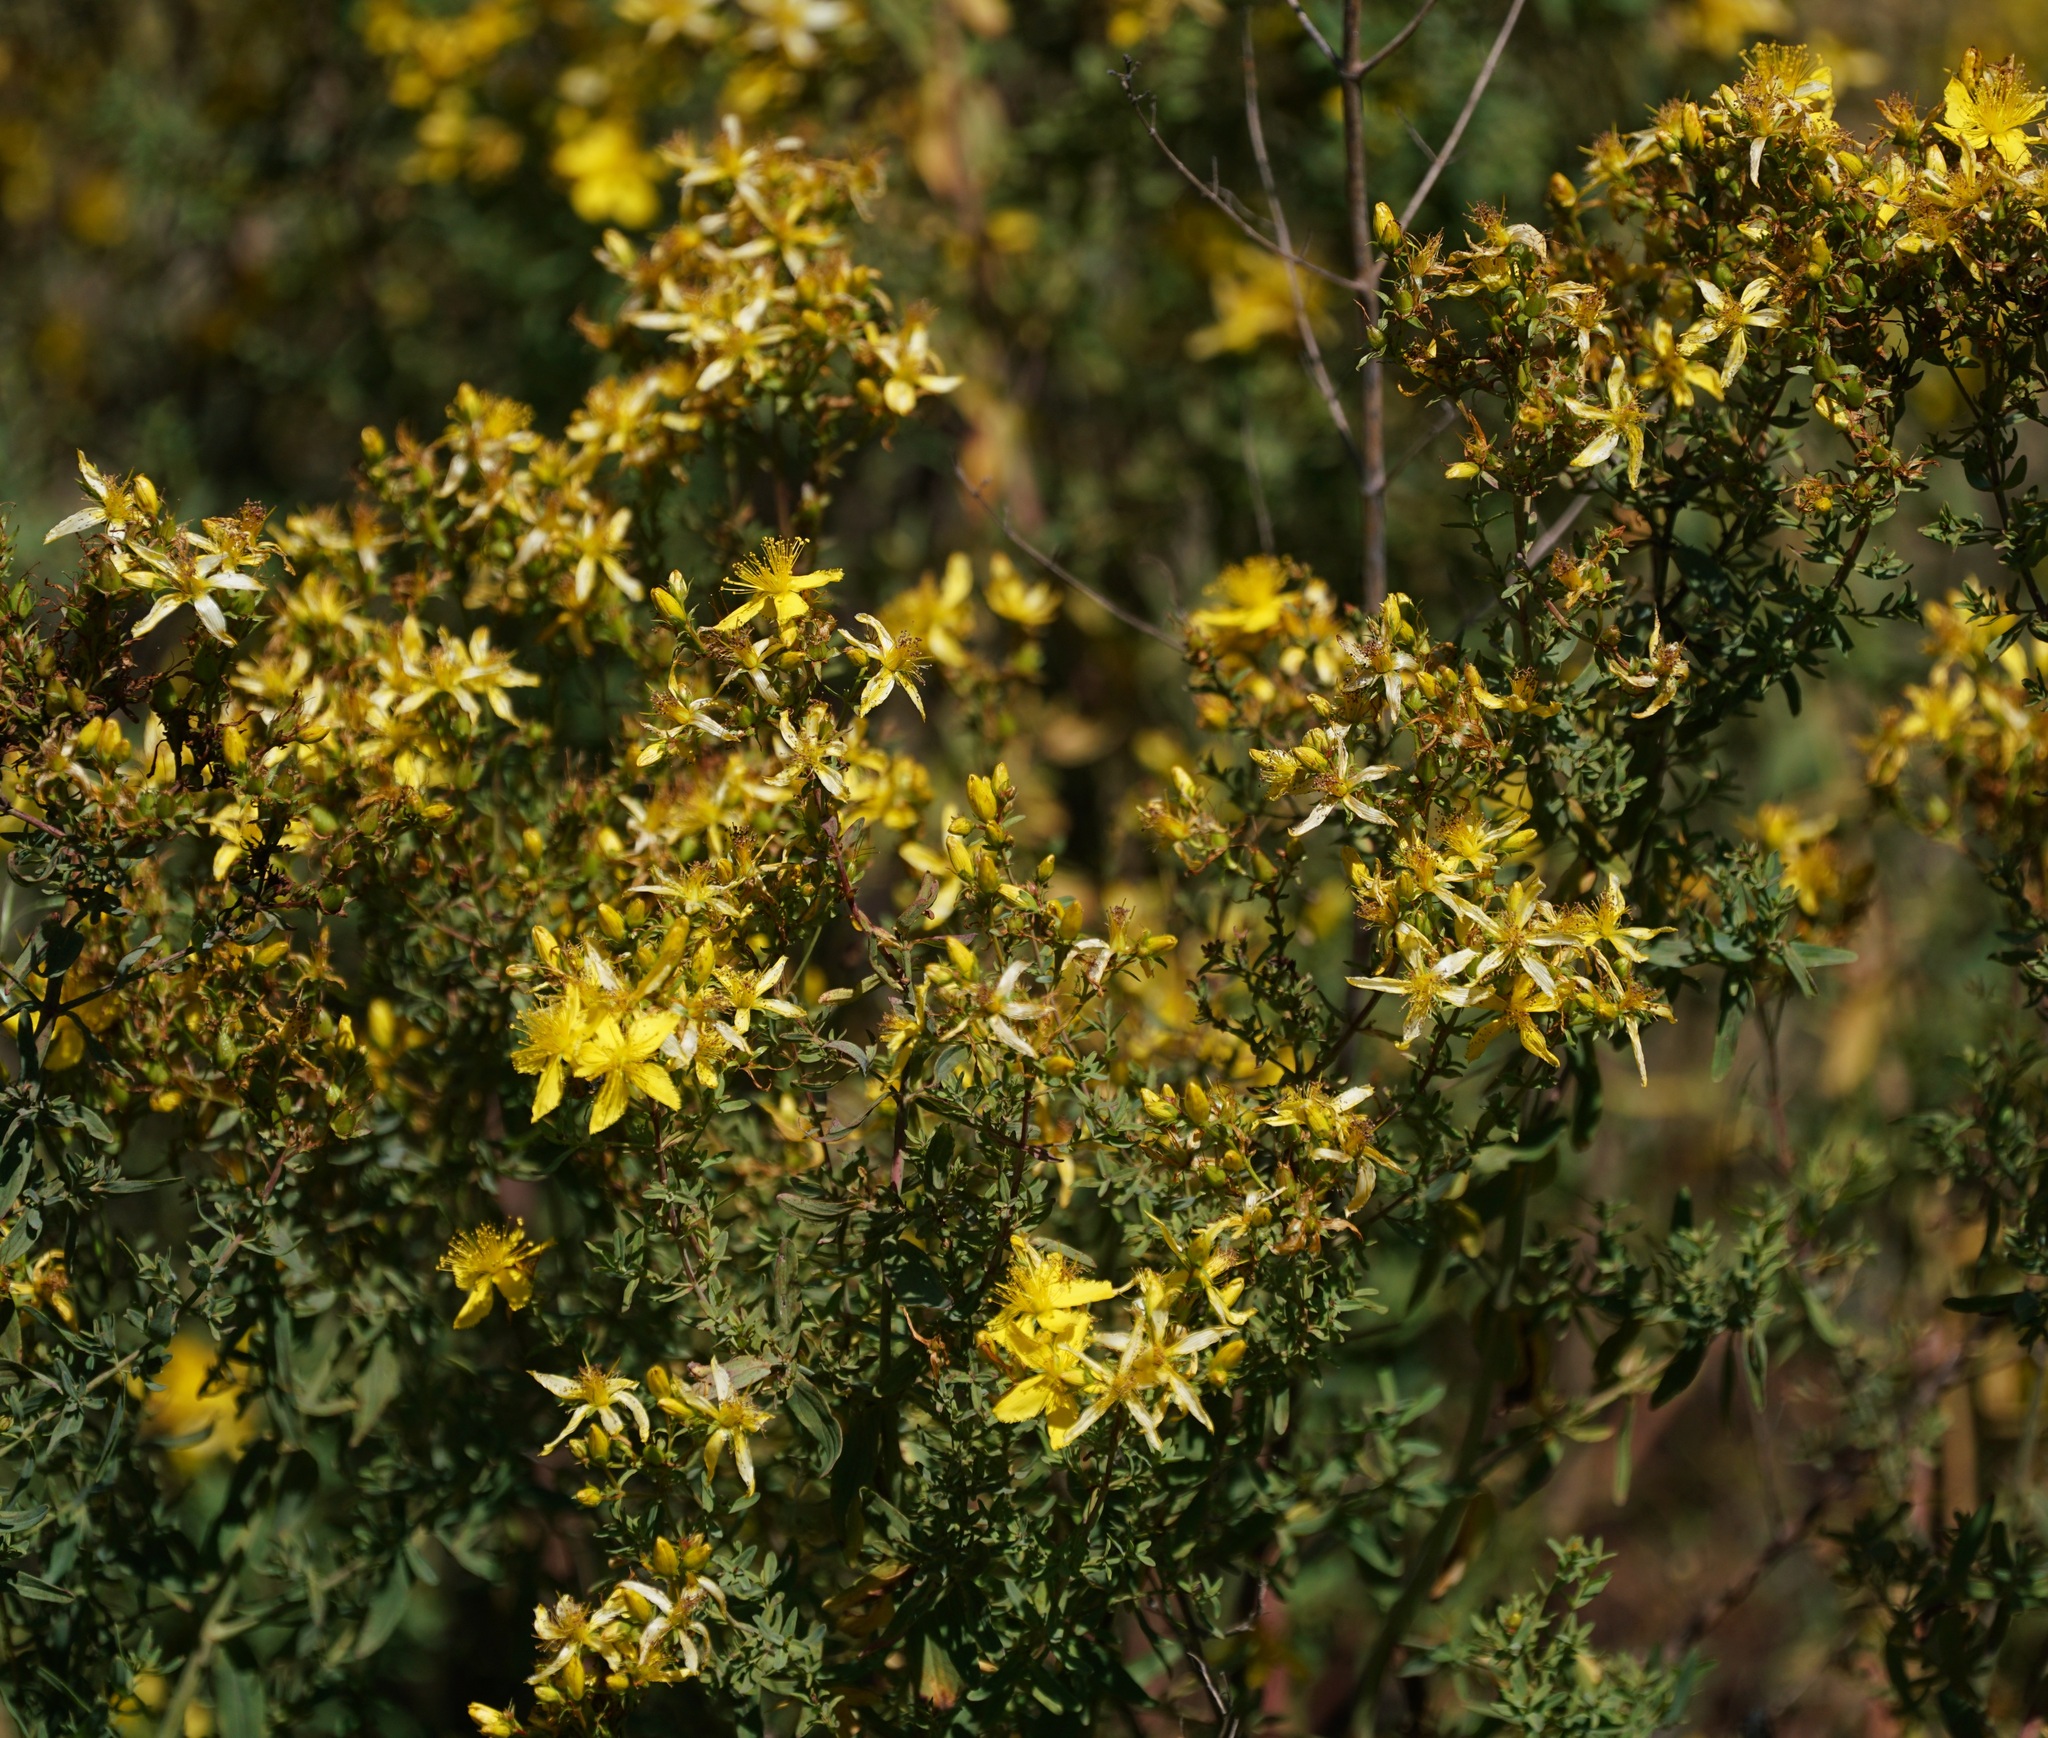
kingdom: Plantae
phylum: Tracheophyta
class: Magnoliopsida
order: Malpighiales
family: Hypericaceae
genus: Hypericum
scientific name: Hypericum perforatum
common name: Common st. johnswort
